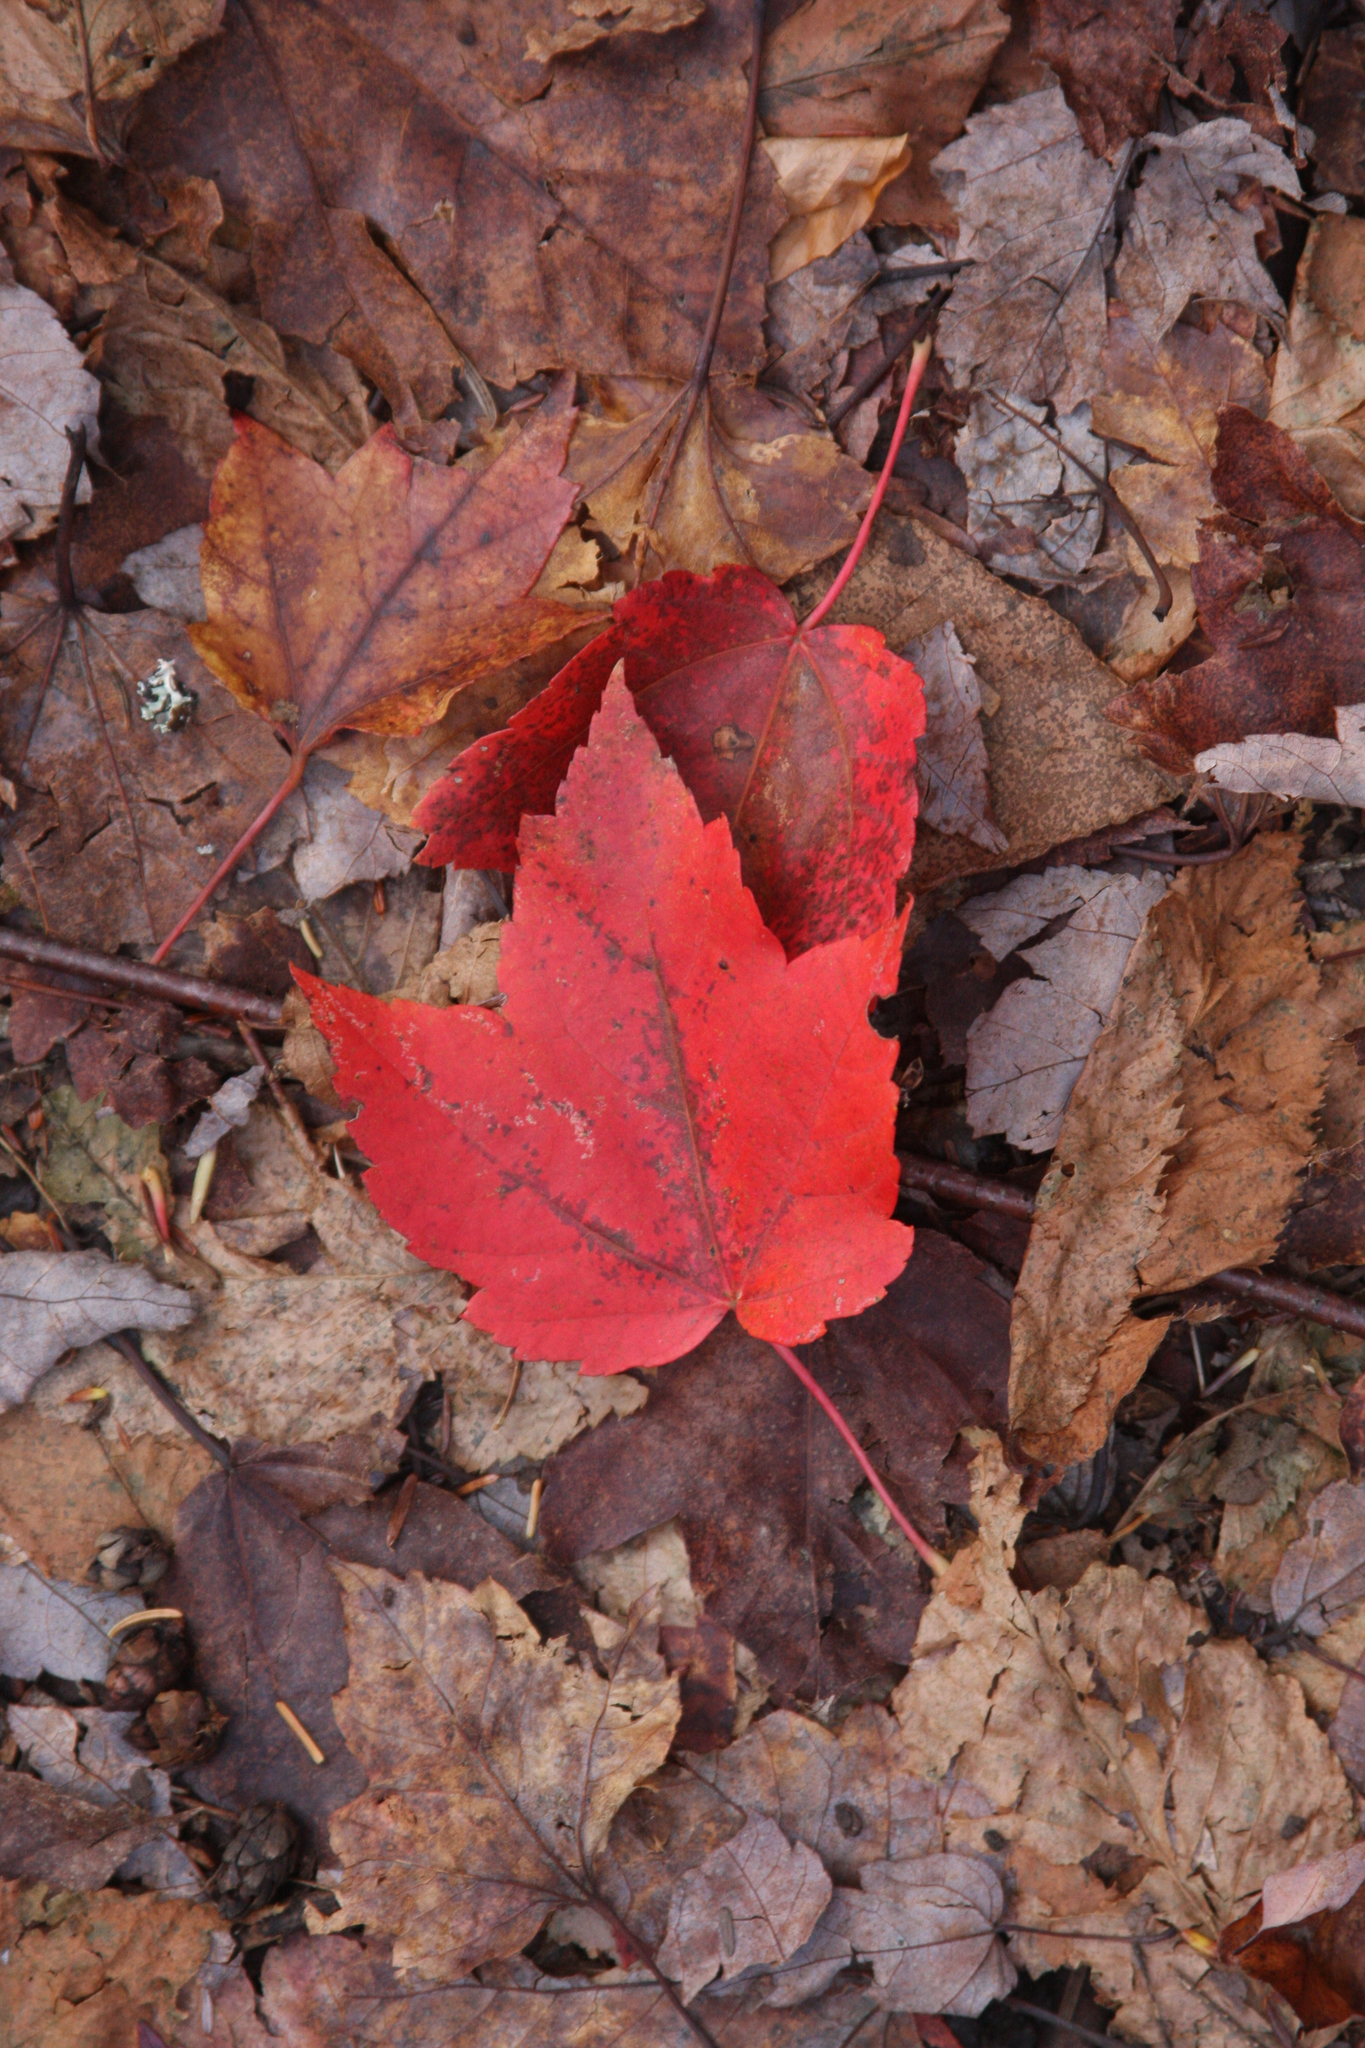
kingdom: Plantae
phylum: Tracheophyta
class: Magnoliopsida
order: Sapindales
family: Sapindaceae
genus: Acer
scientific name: Acer rubrum
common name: Red maple
